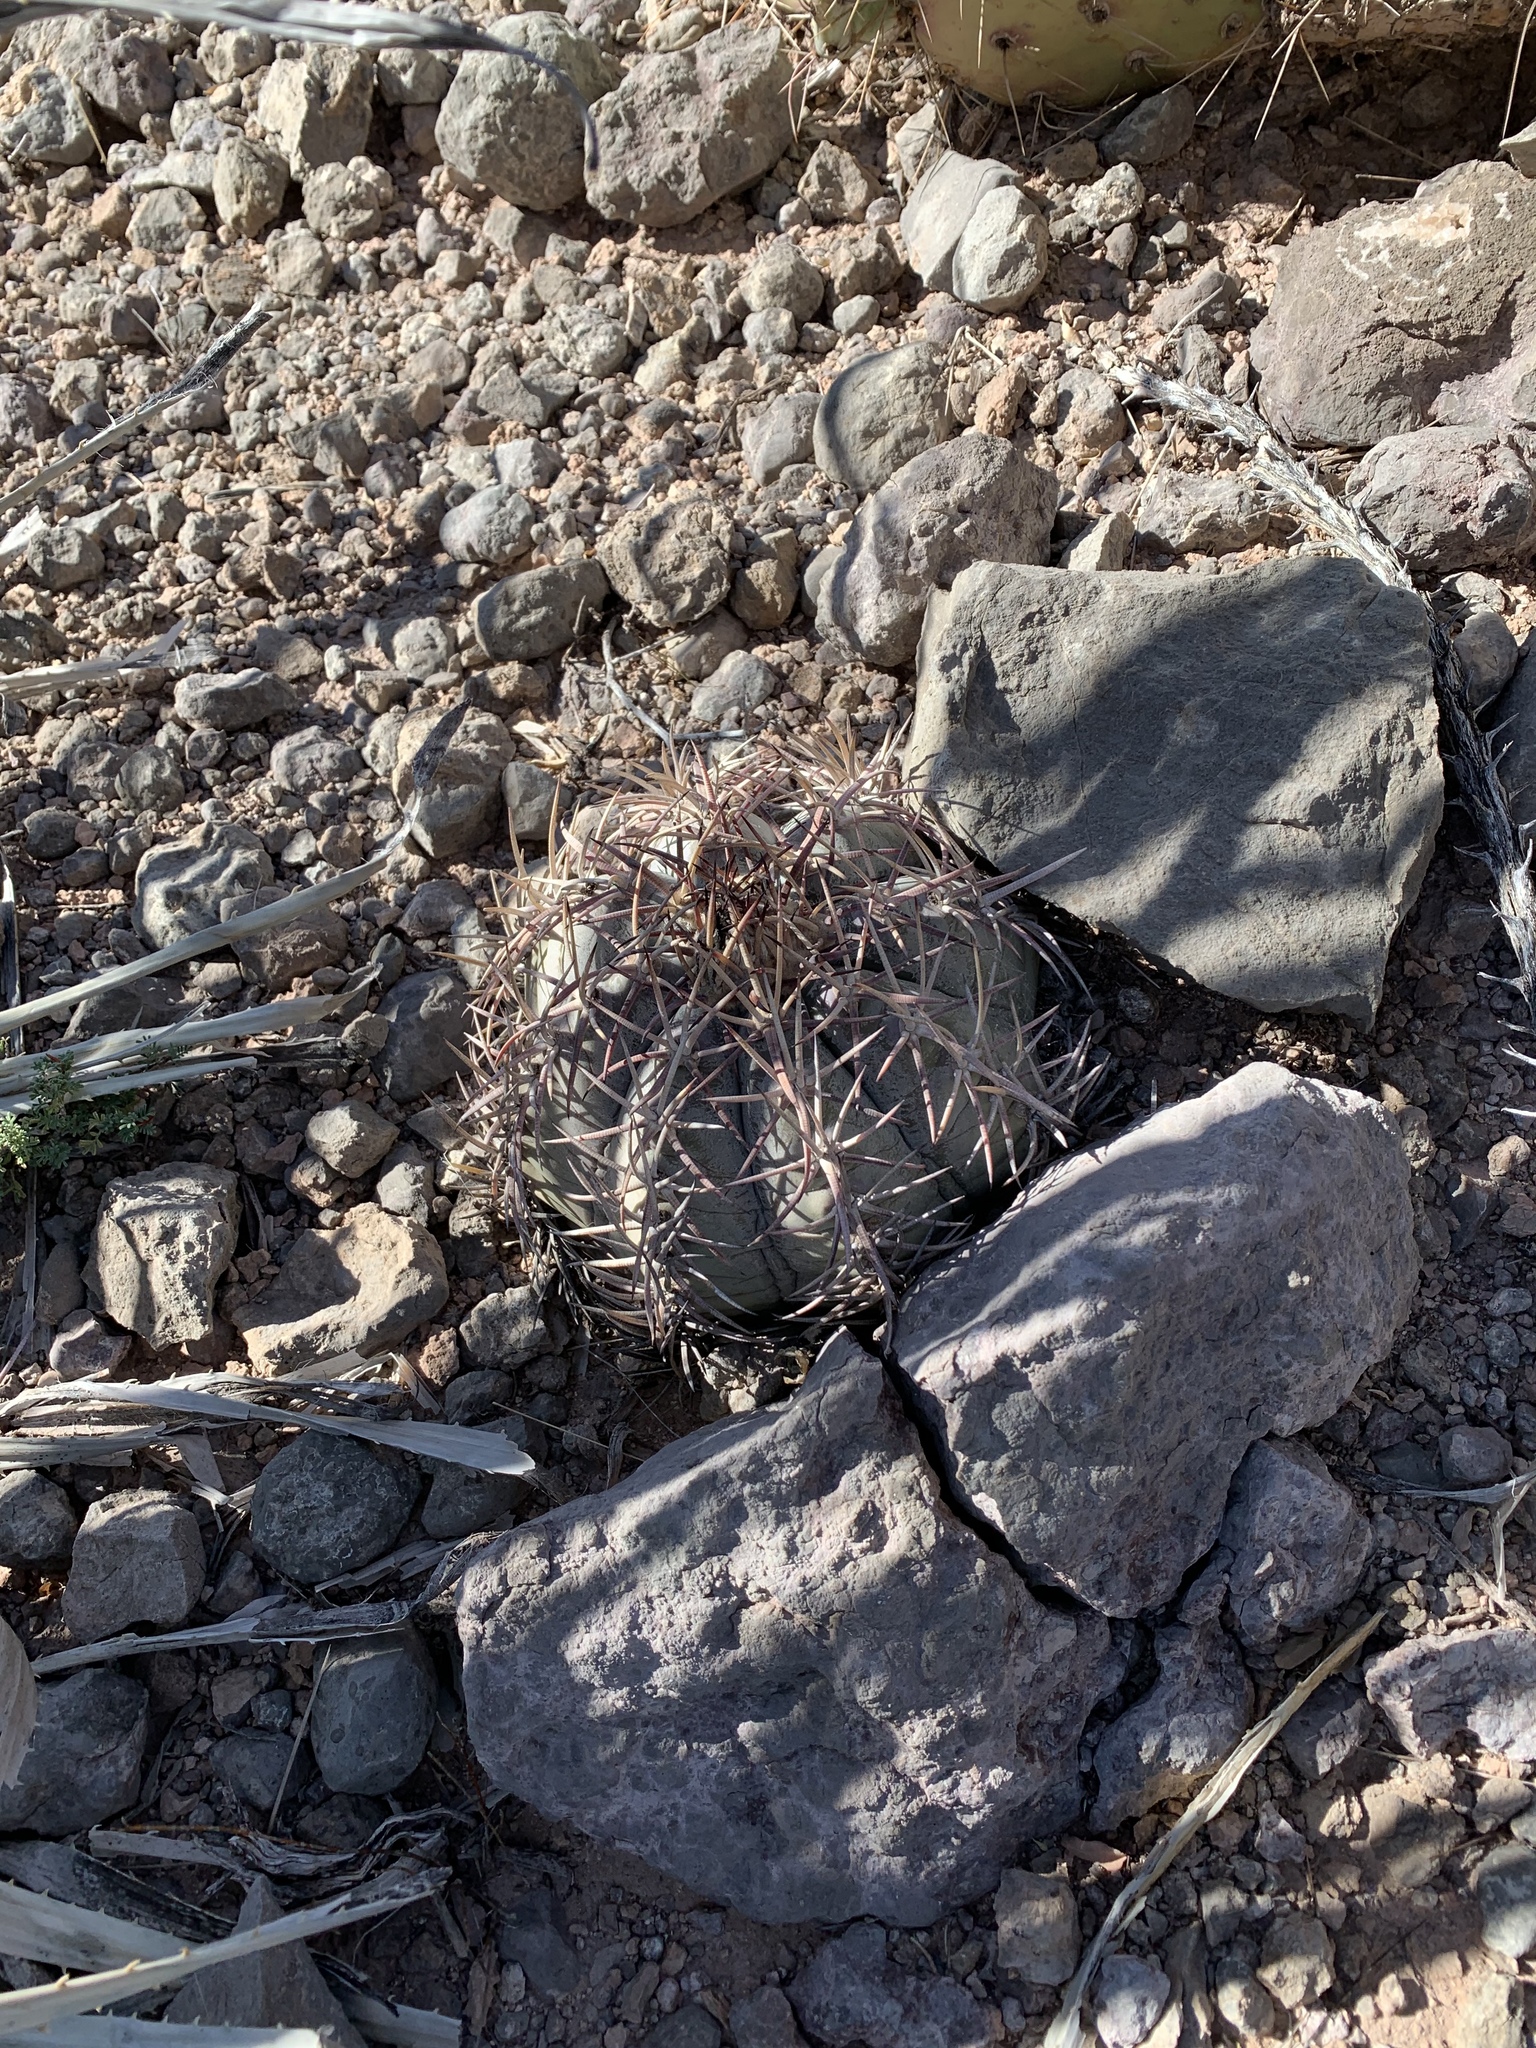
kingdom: Plantae
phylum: Tracheophyta
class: Magnoliopsida
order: Caryophyllales
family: Cactaceae
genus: Echinocactus
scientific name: Echinocactus horizonthalonius
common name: Devilshead
